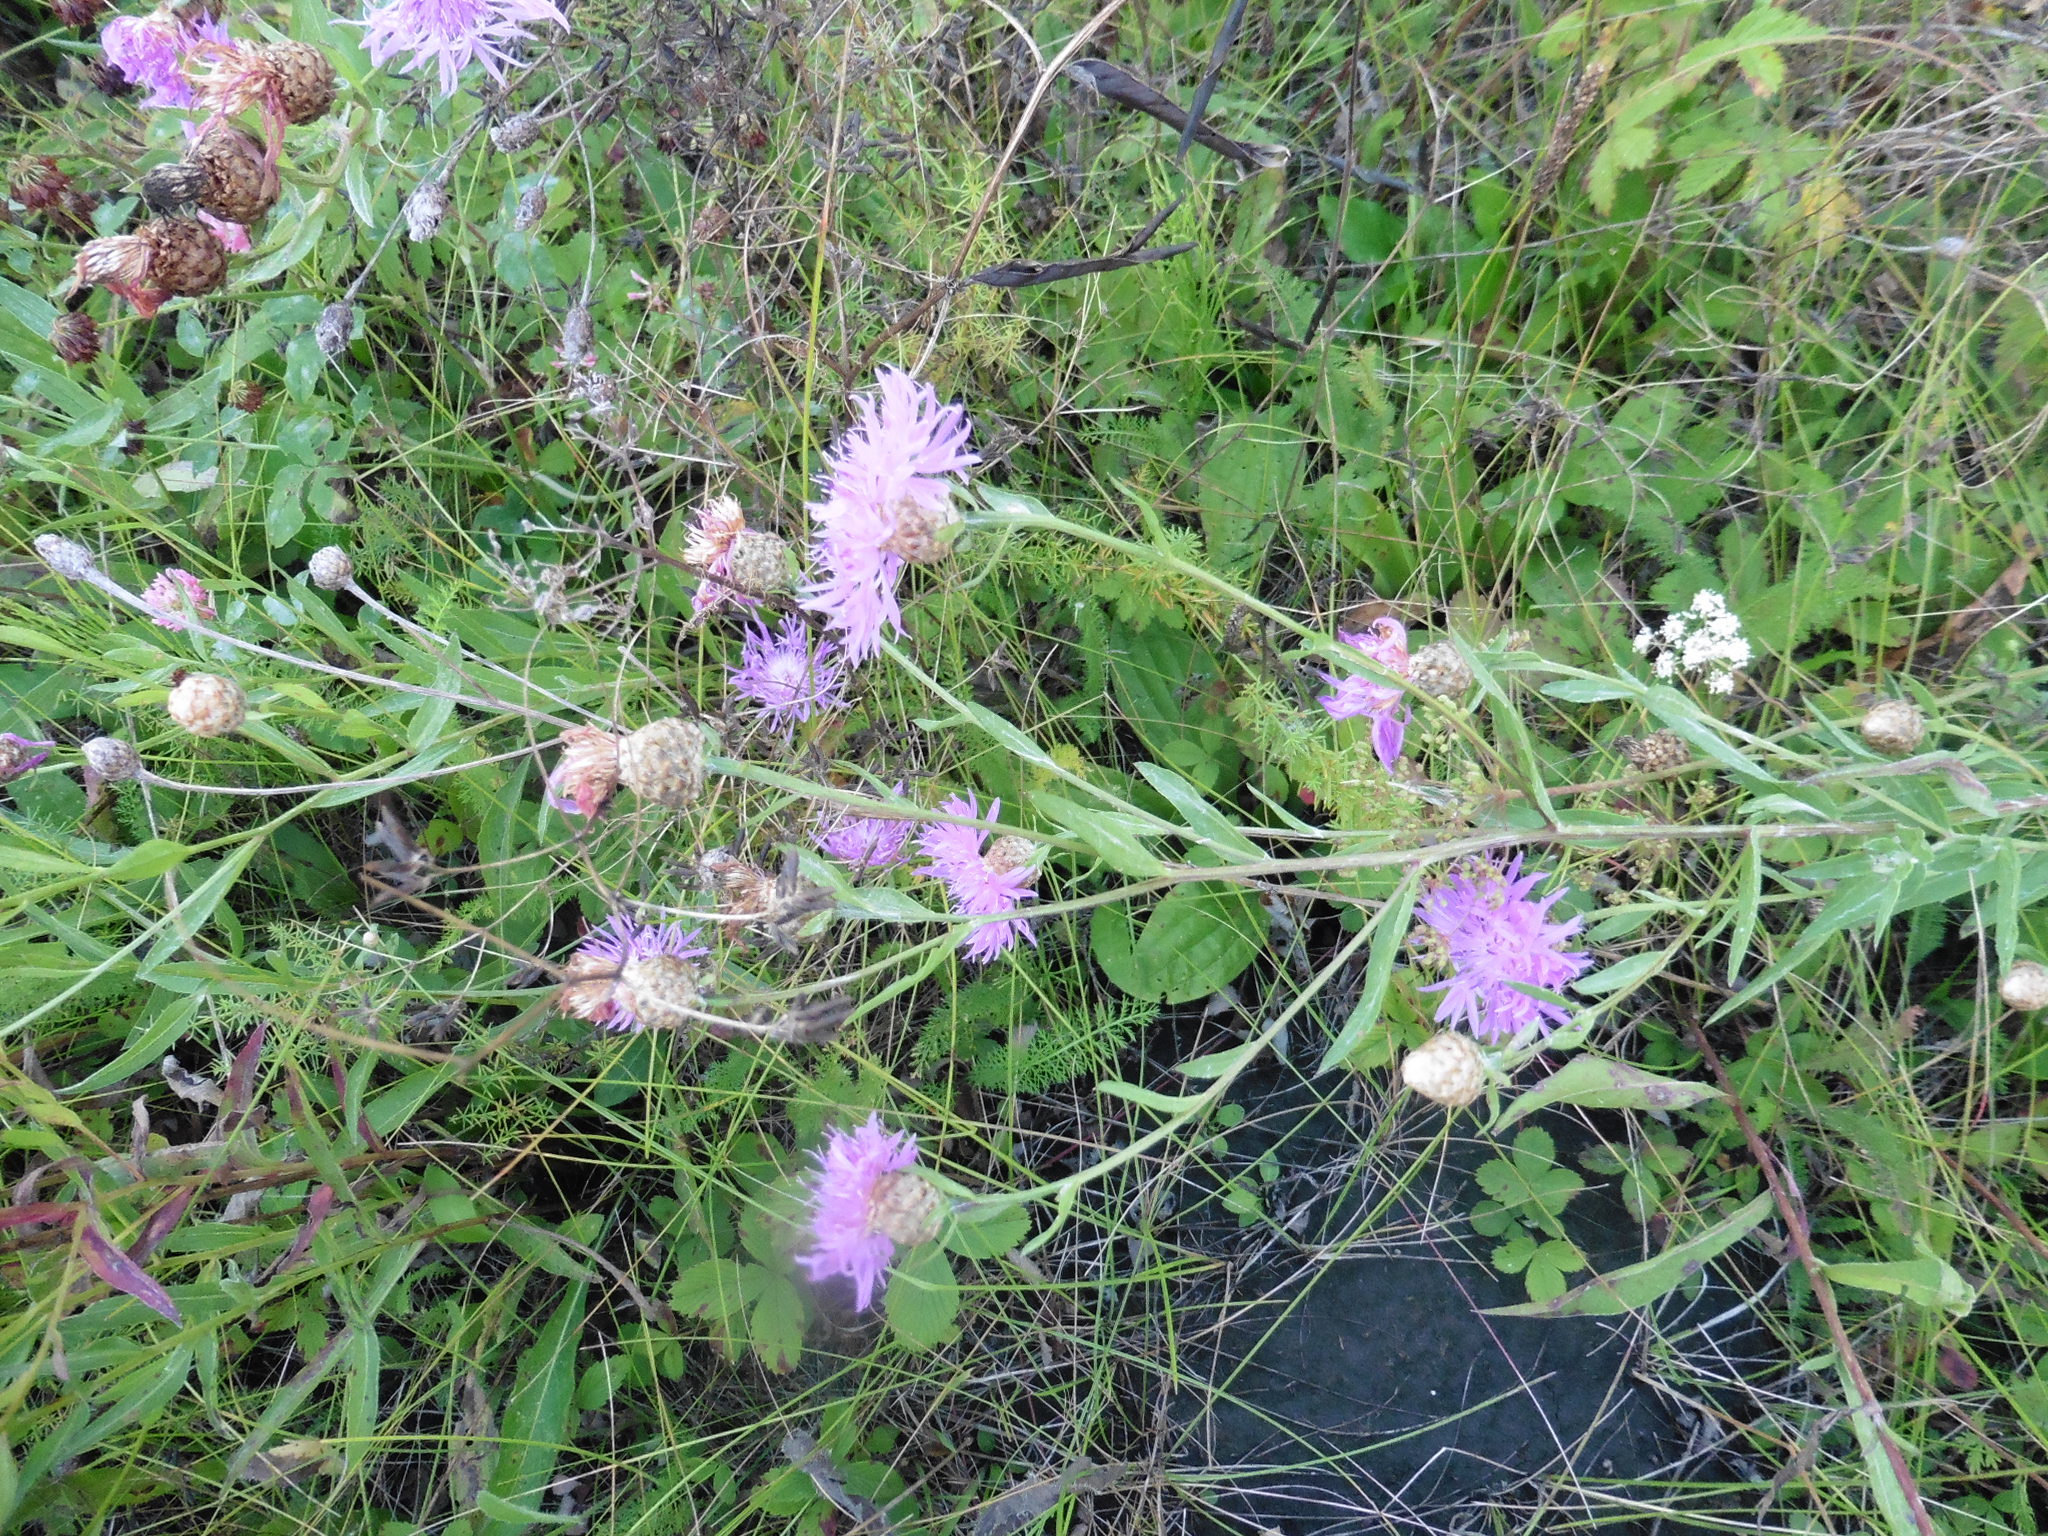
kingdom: Plantae
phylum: Tracheophyta
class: Magnoliopsida
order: Asterales
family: Asteraceae
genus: Centaurea
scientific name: Centaurea jacea
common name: Brown knapweed
